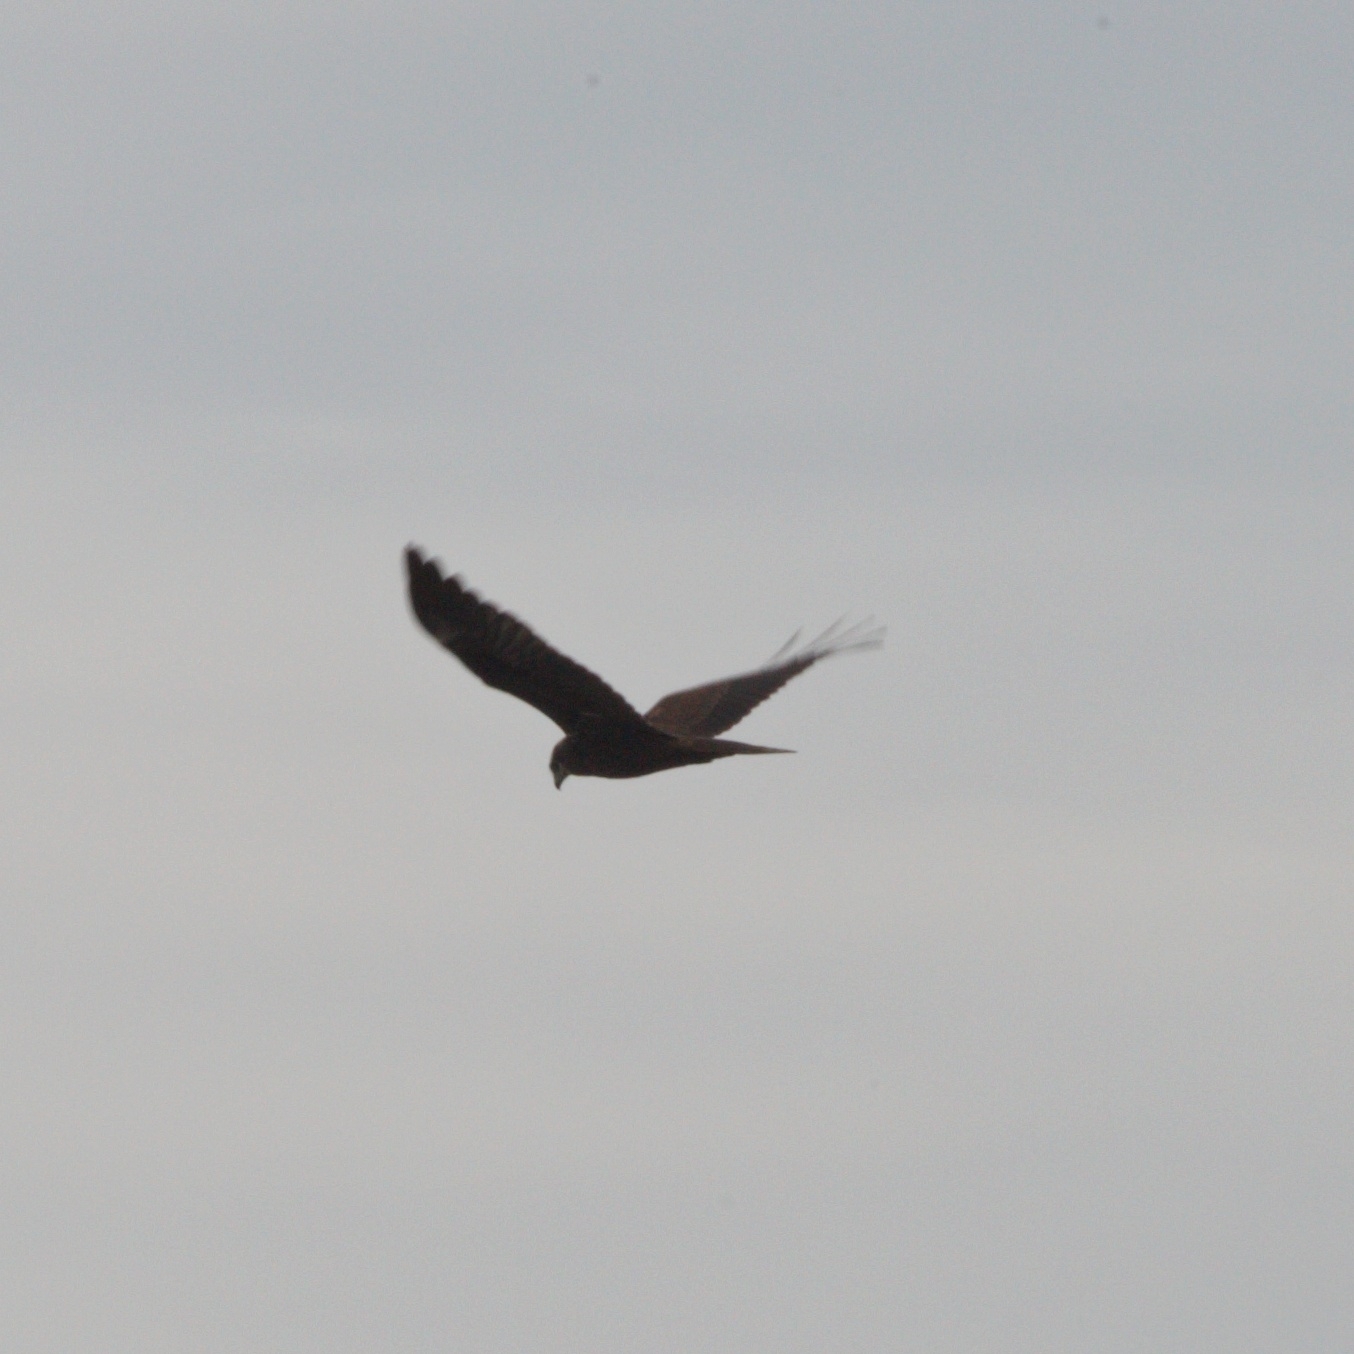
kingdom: Animalia
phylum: Chordata
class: Aves
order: Accipitriformes
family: Accipitridae
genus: Circus
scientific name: Circus aeruginosus
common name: Western marsh harrier
